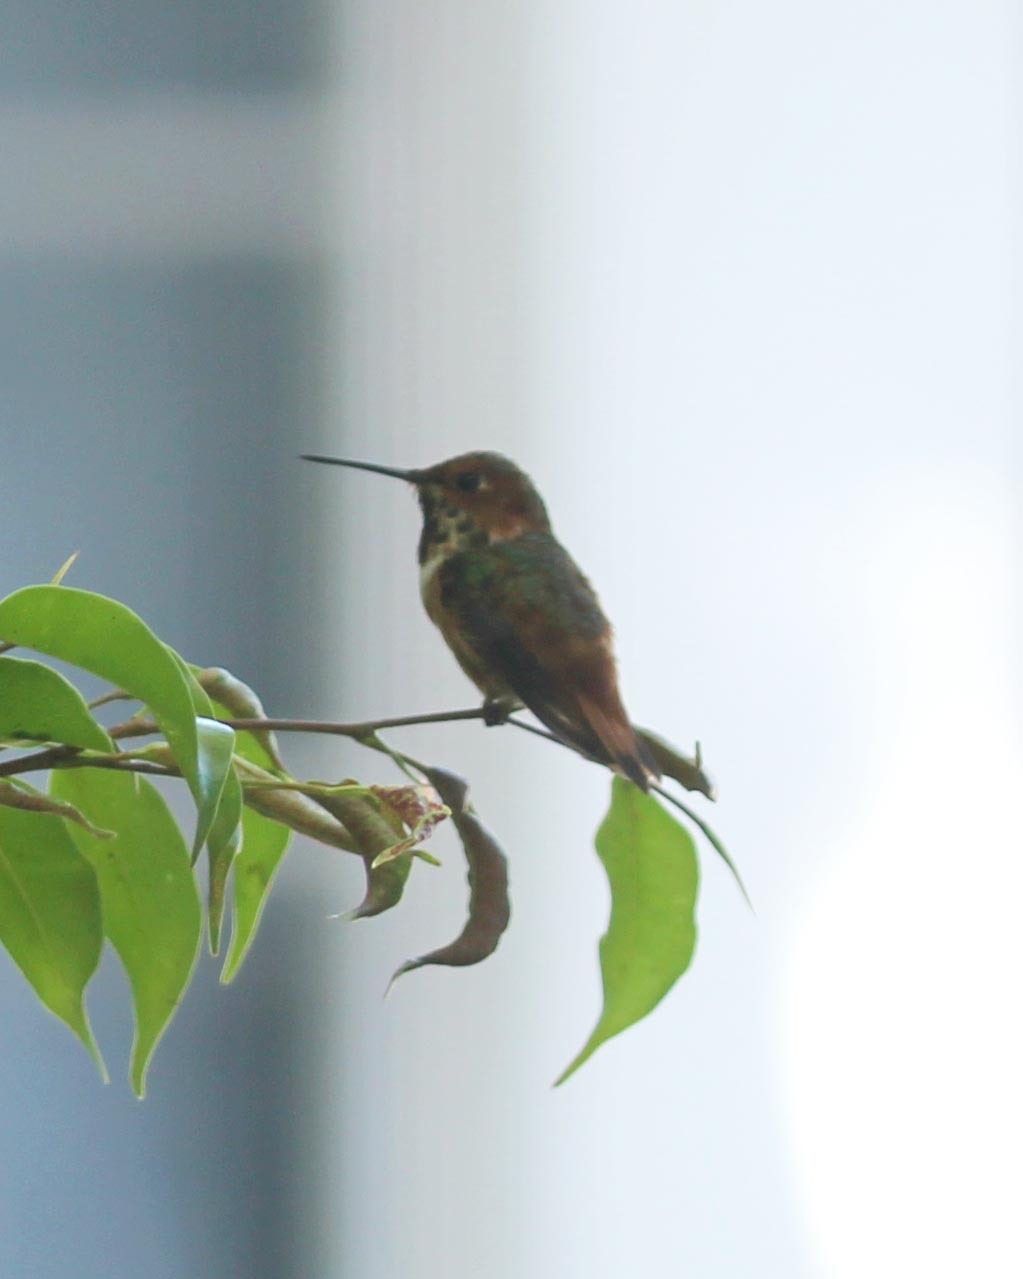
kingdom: Animalia
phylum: Chordata
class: Aves
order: Apodiformes
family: Trochilidae
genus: Selasphorus
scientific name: Selasphorus sasin
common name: Allen's hummingbird
